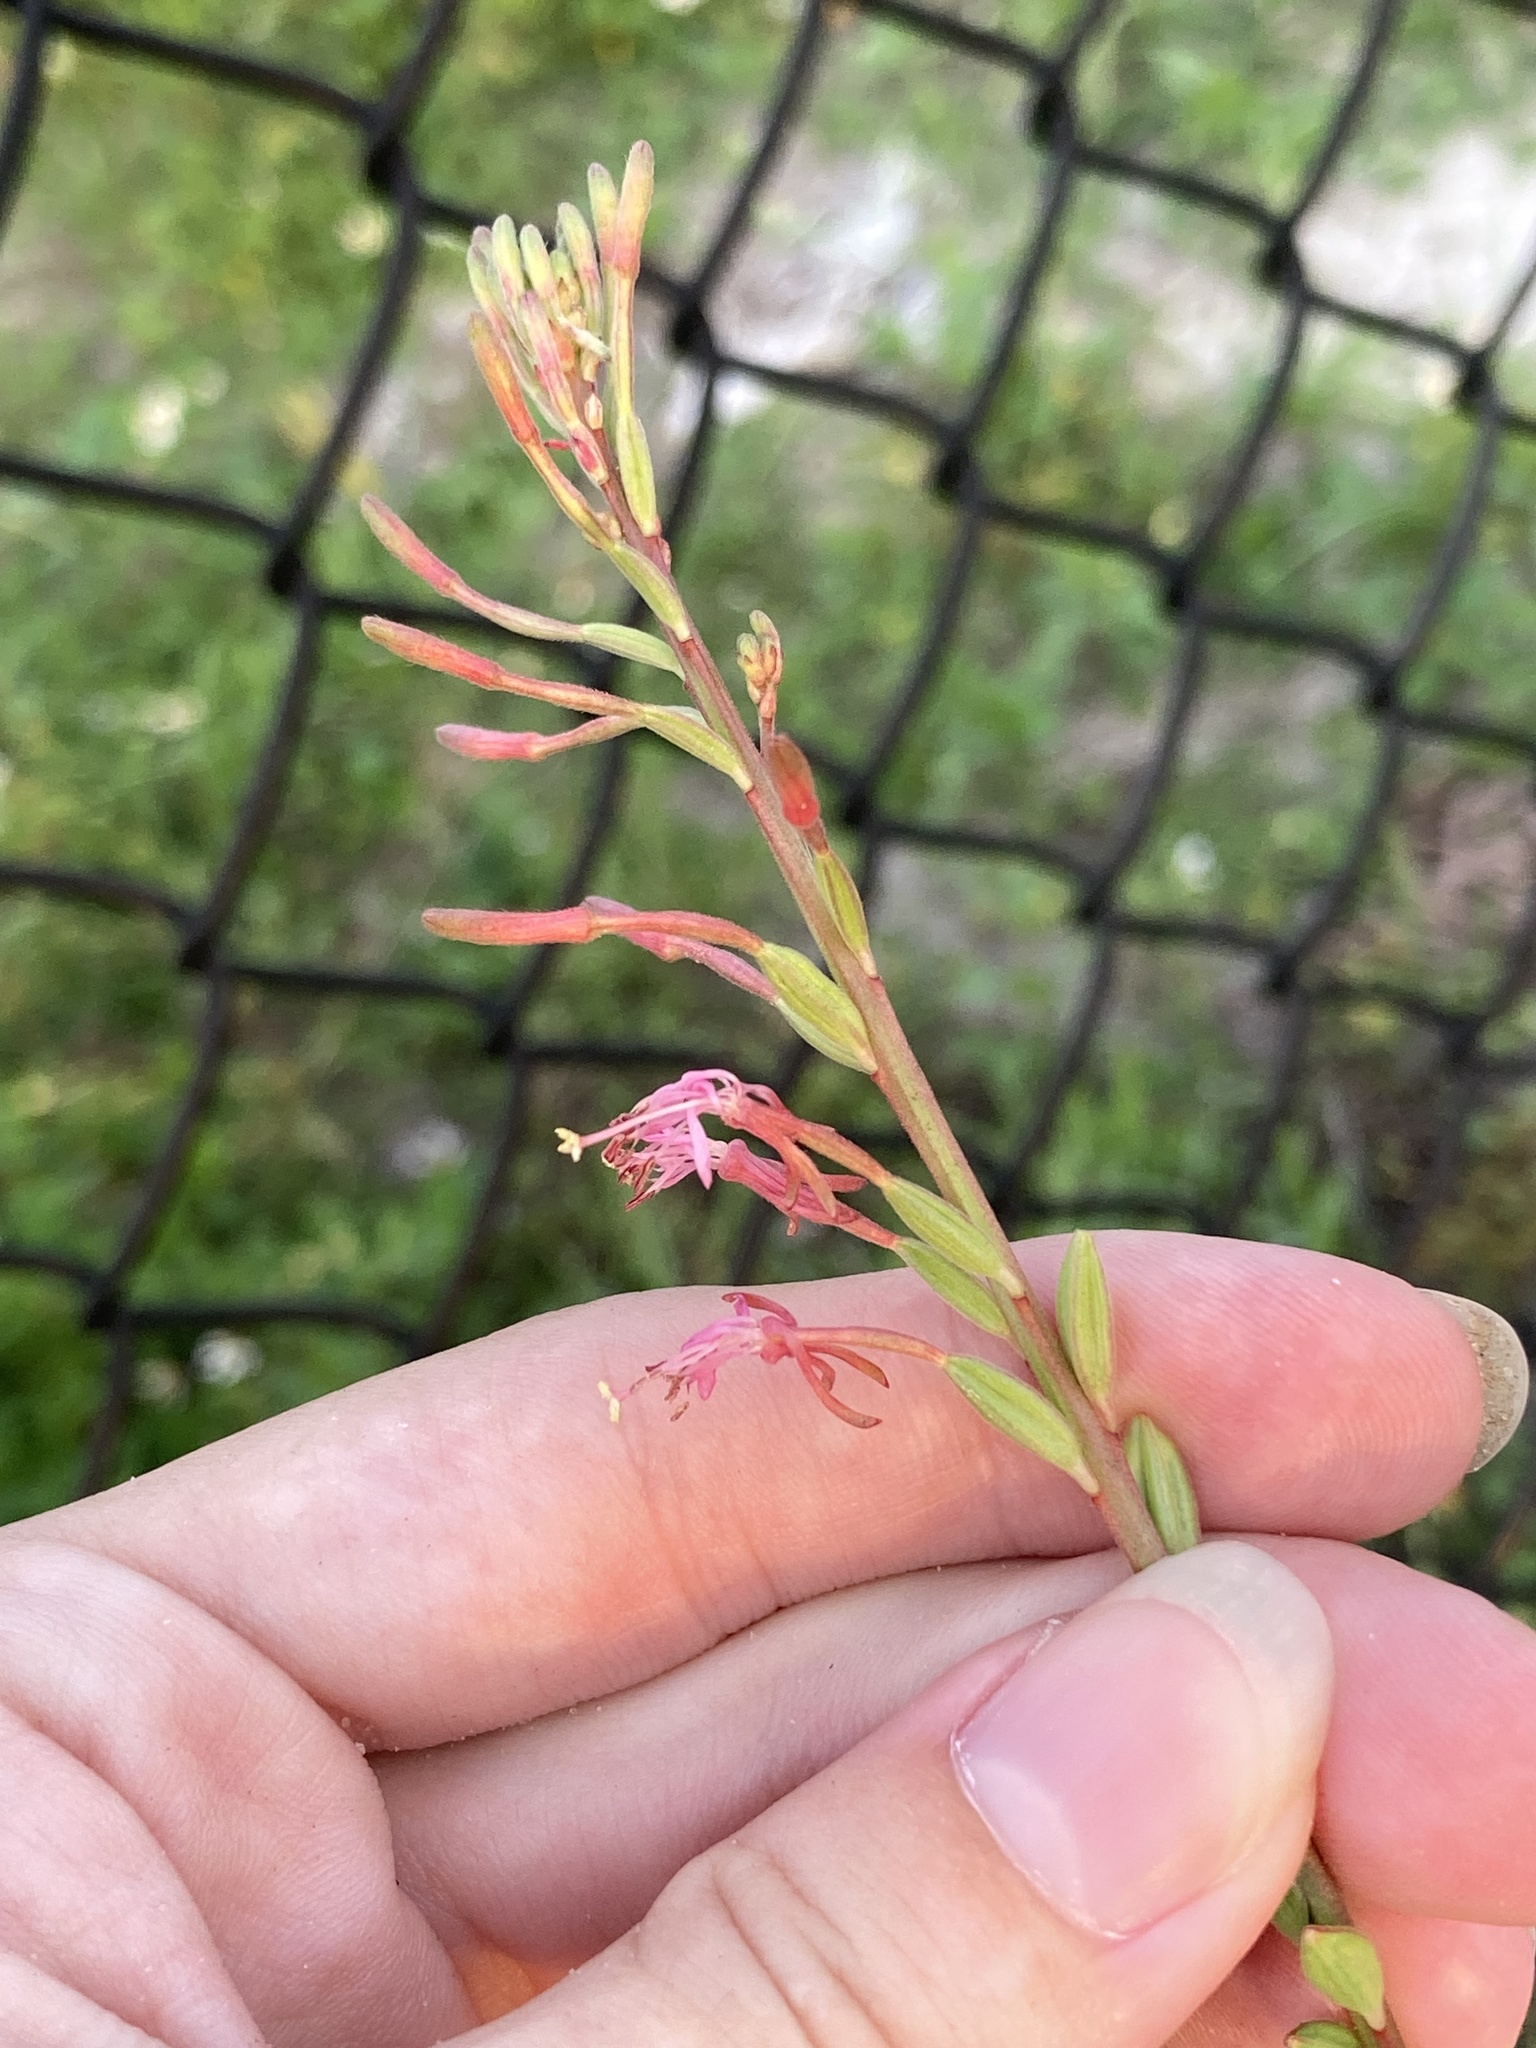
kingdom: Plantae
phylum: Tracheophyta
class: Magnoliopsida
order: Myrtales
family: Onagraceae
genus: Oenothera
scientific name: Oenothera simulans
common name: Southern beeblossom
